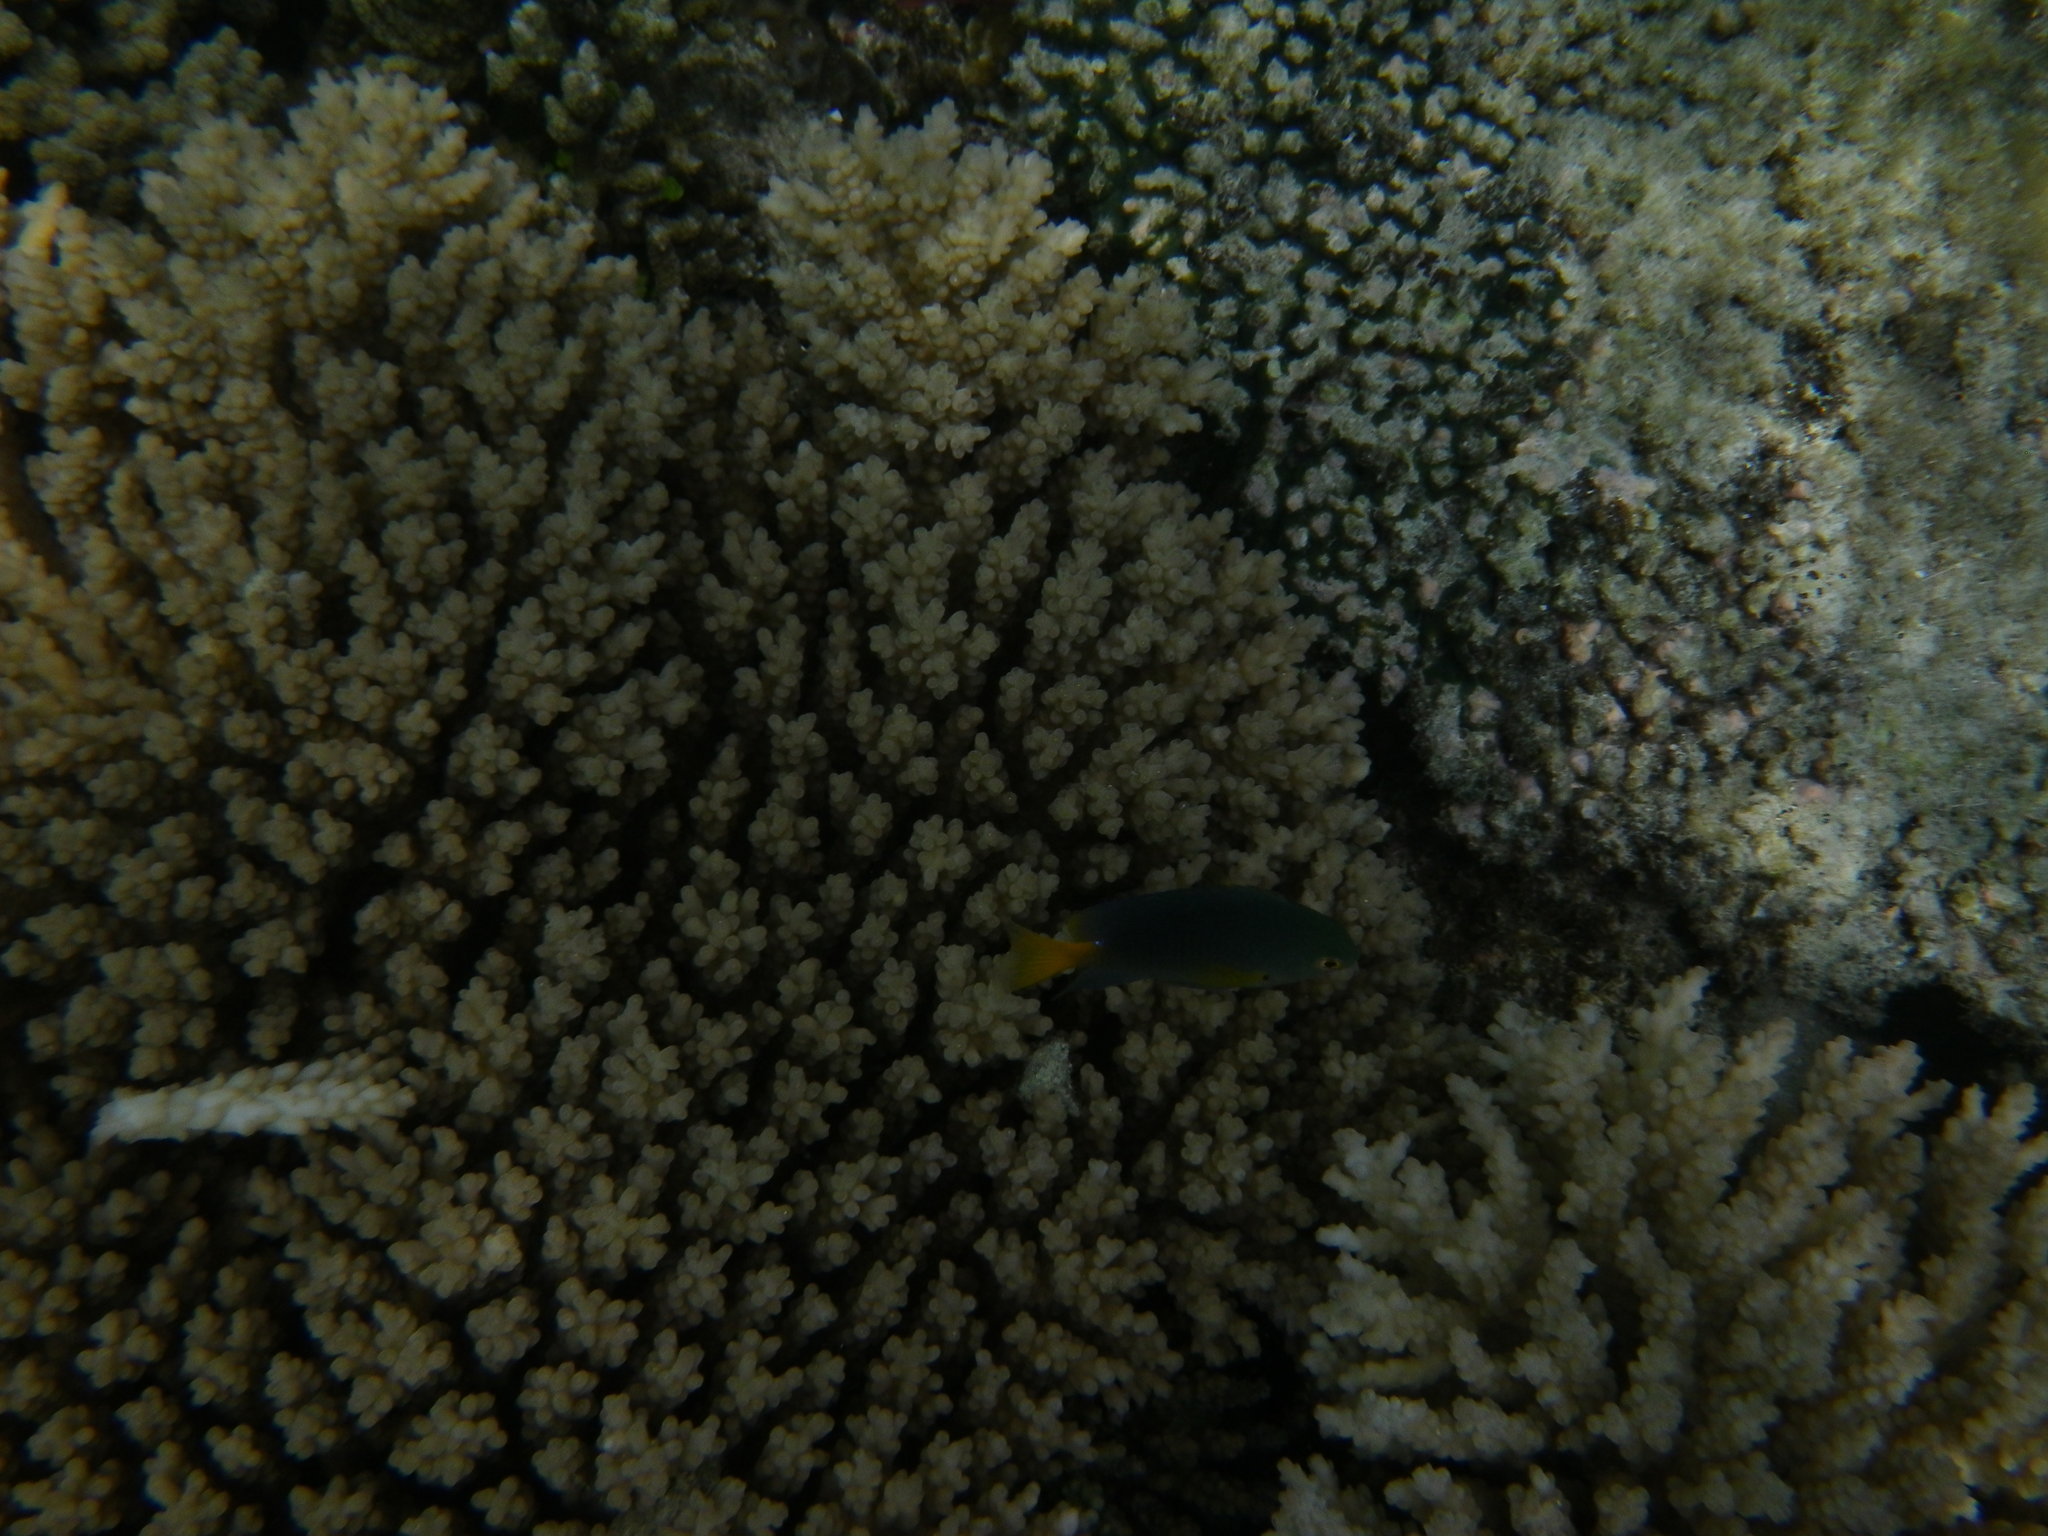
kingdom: Animalia
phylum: Chordata
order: Perciformes
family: Pomacentridae
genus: Pomacentrus
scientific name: Pomacentrus maafu
